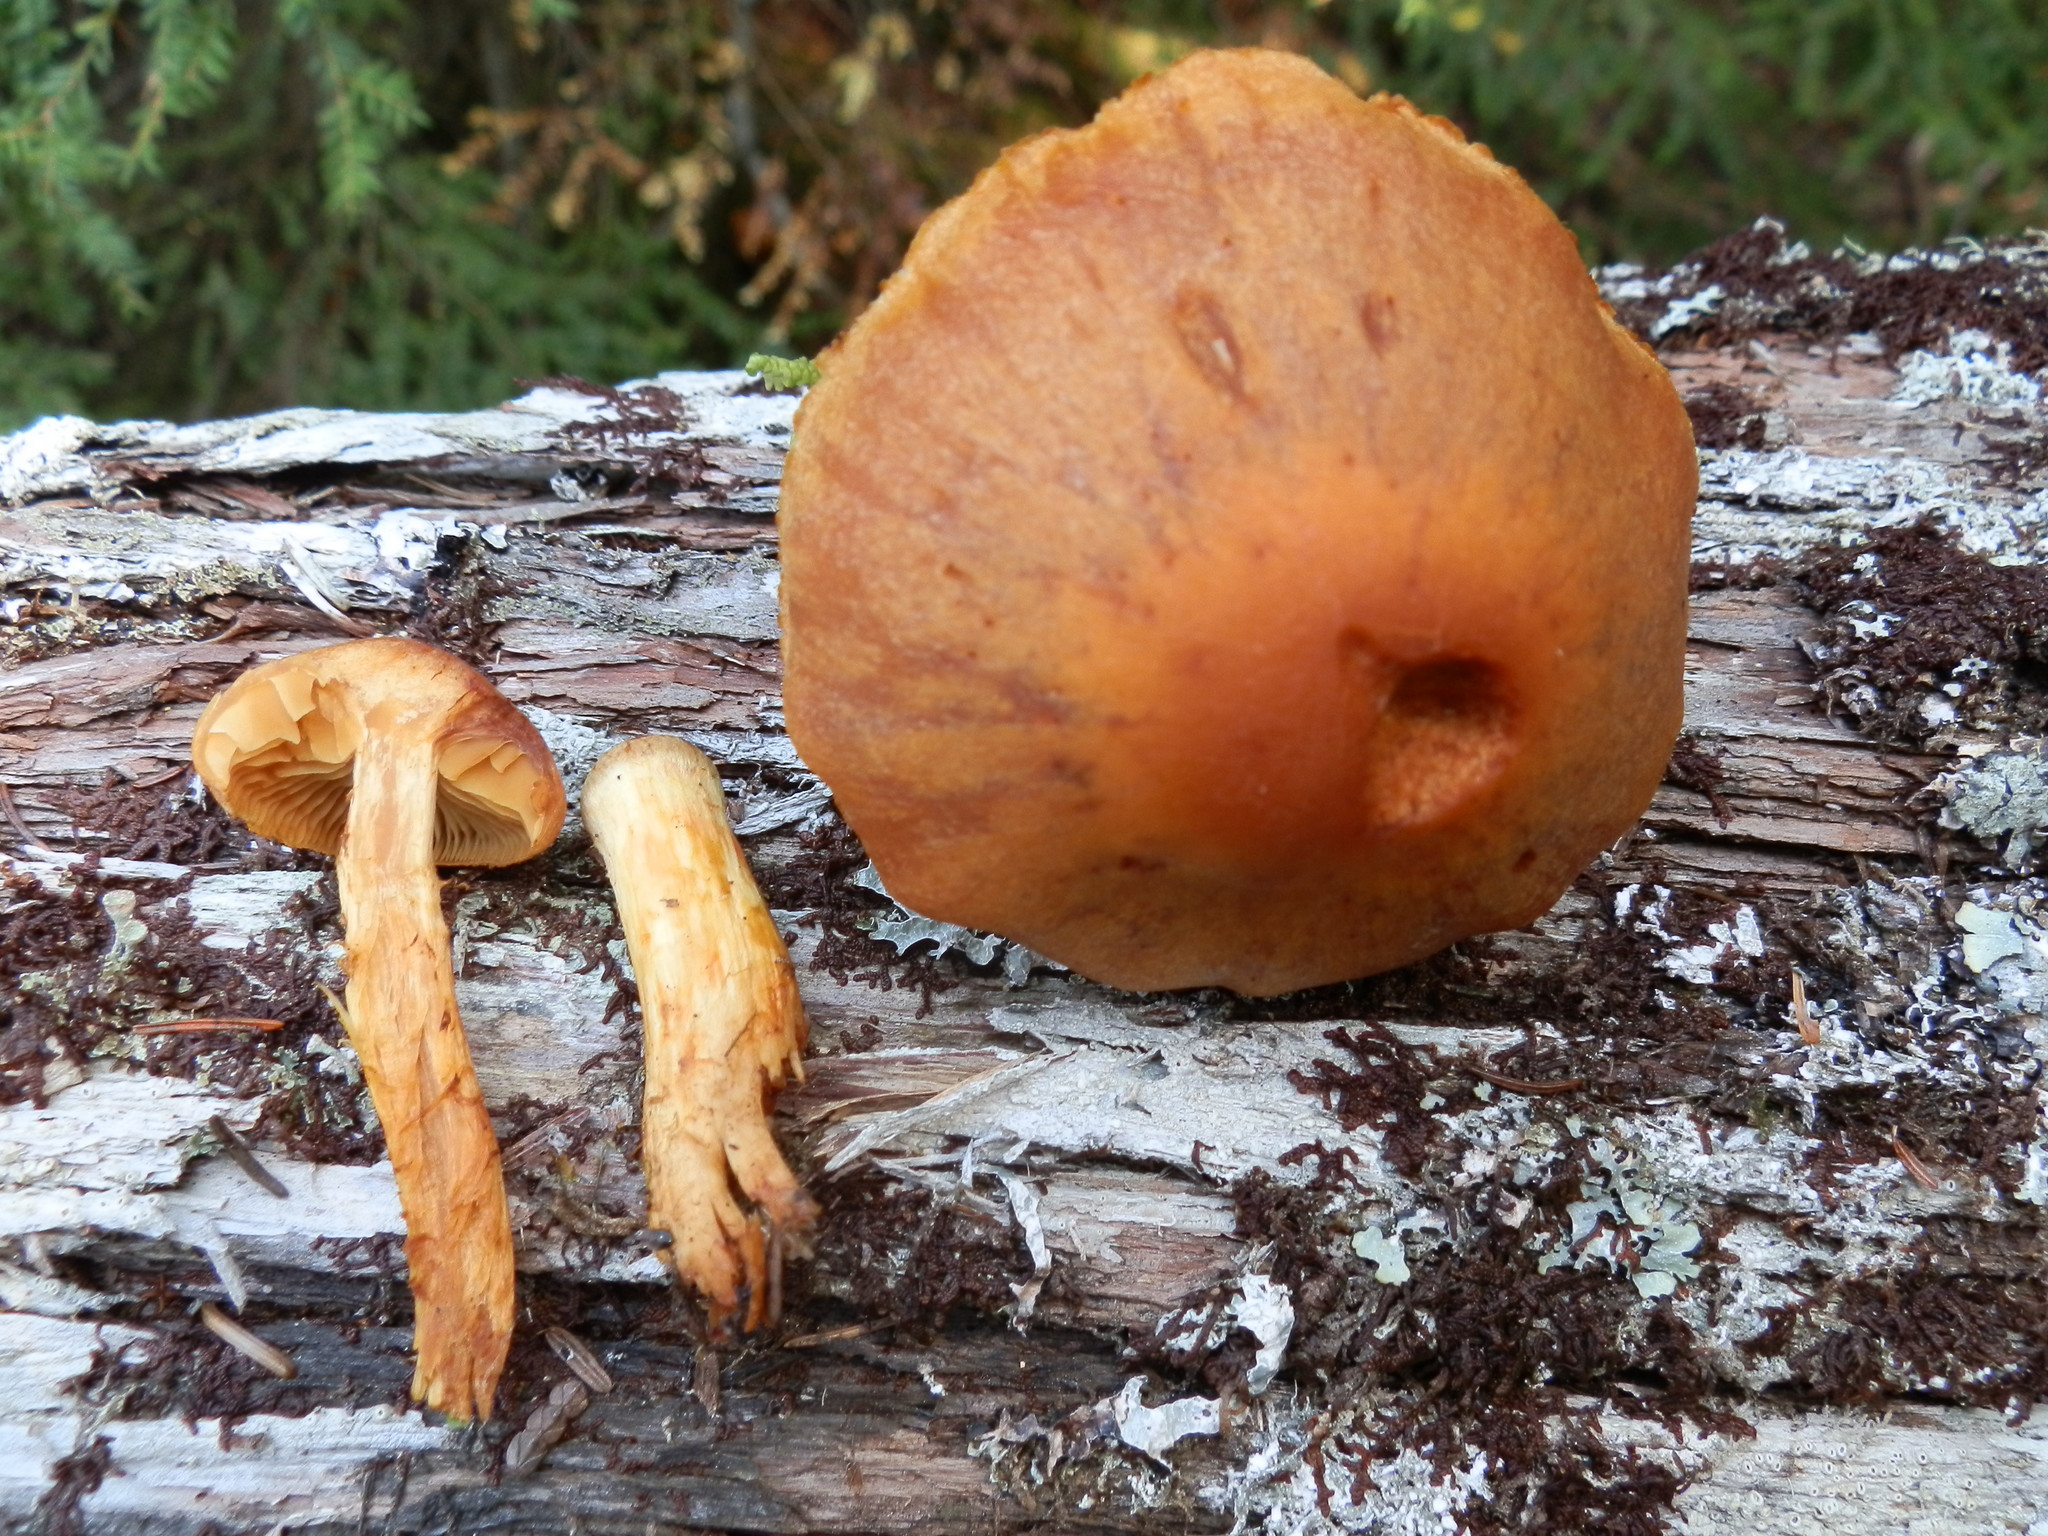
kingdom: Fungi
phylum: Basidiomycota
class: Agaricomycetes
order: Agaricales
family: Cortinariaceae
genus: Aureonarius
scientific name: Aureonarius limonius
